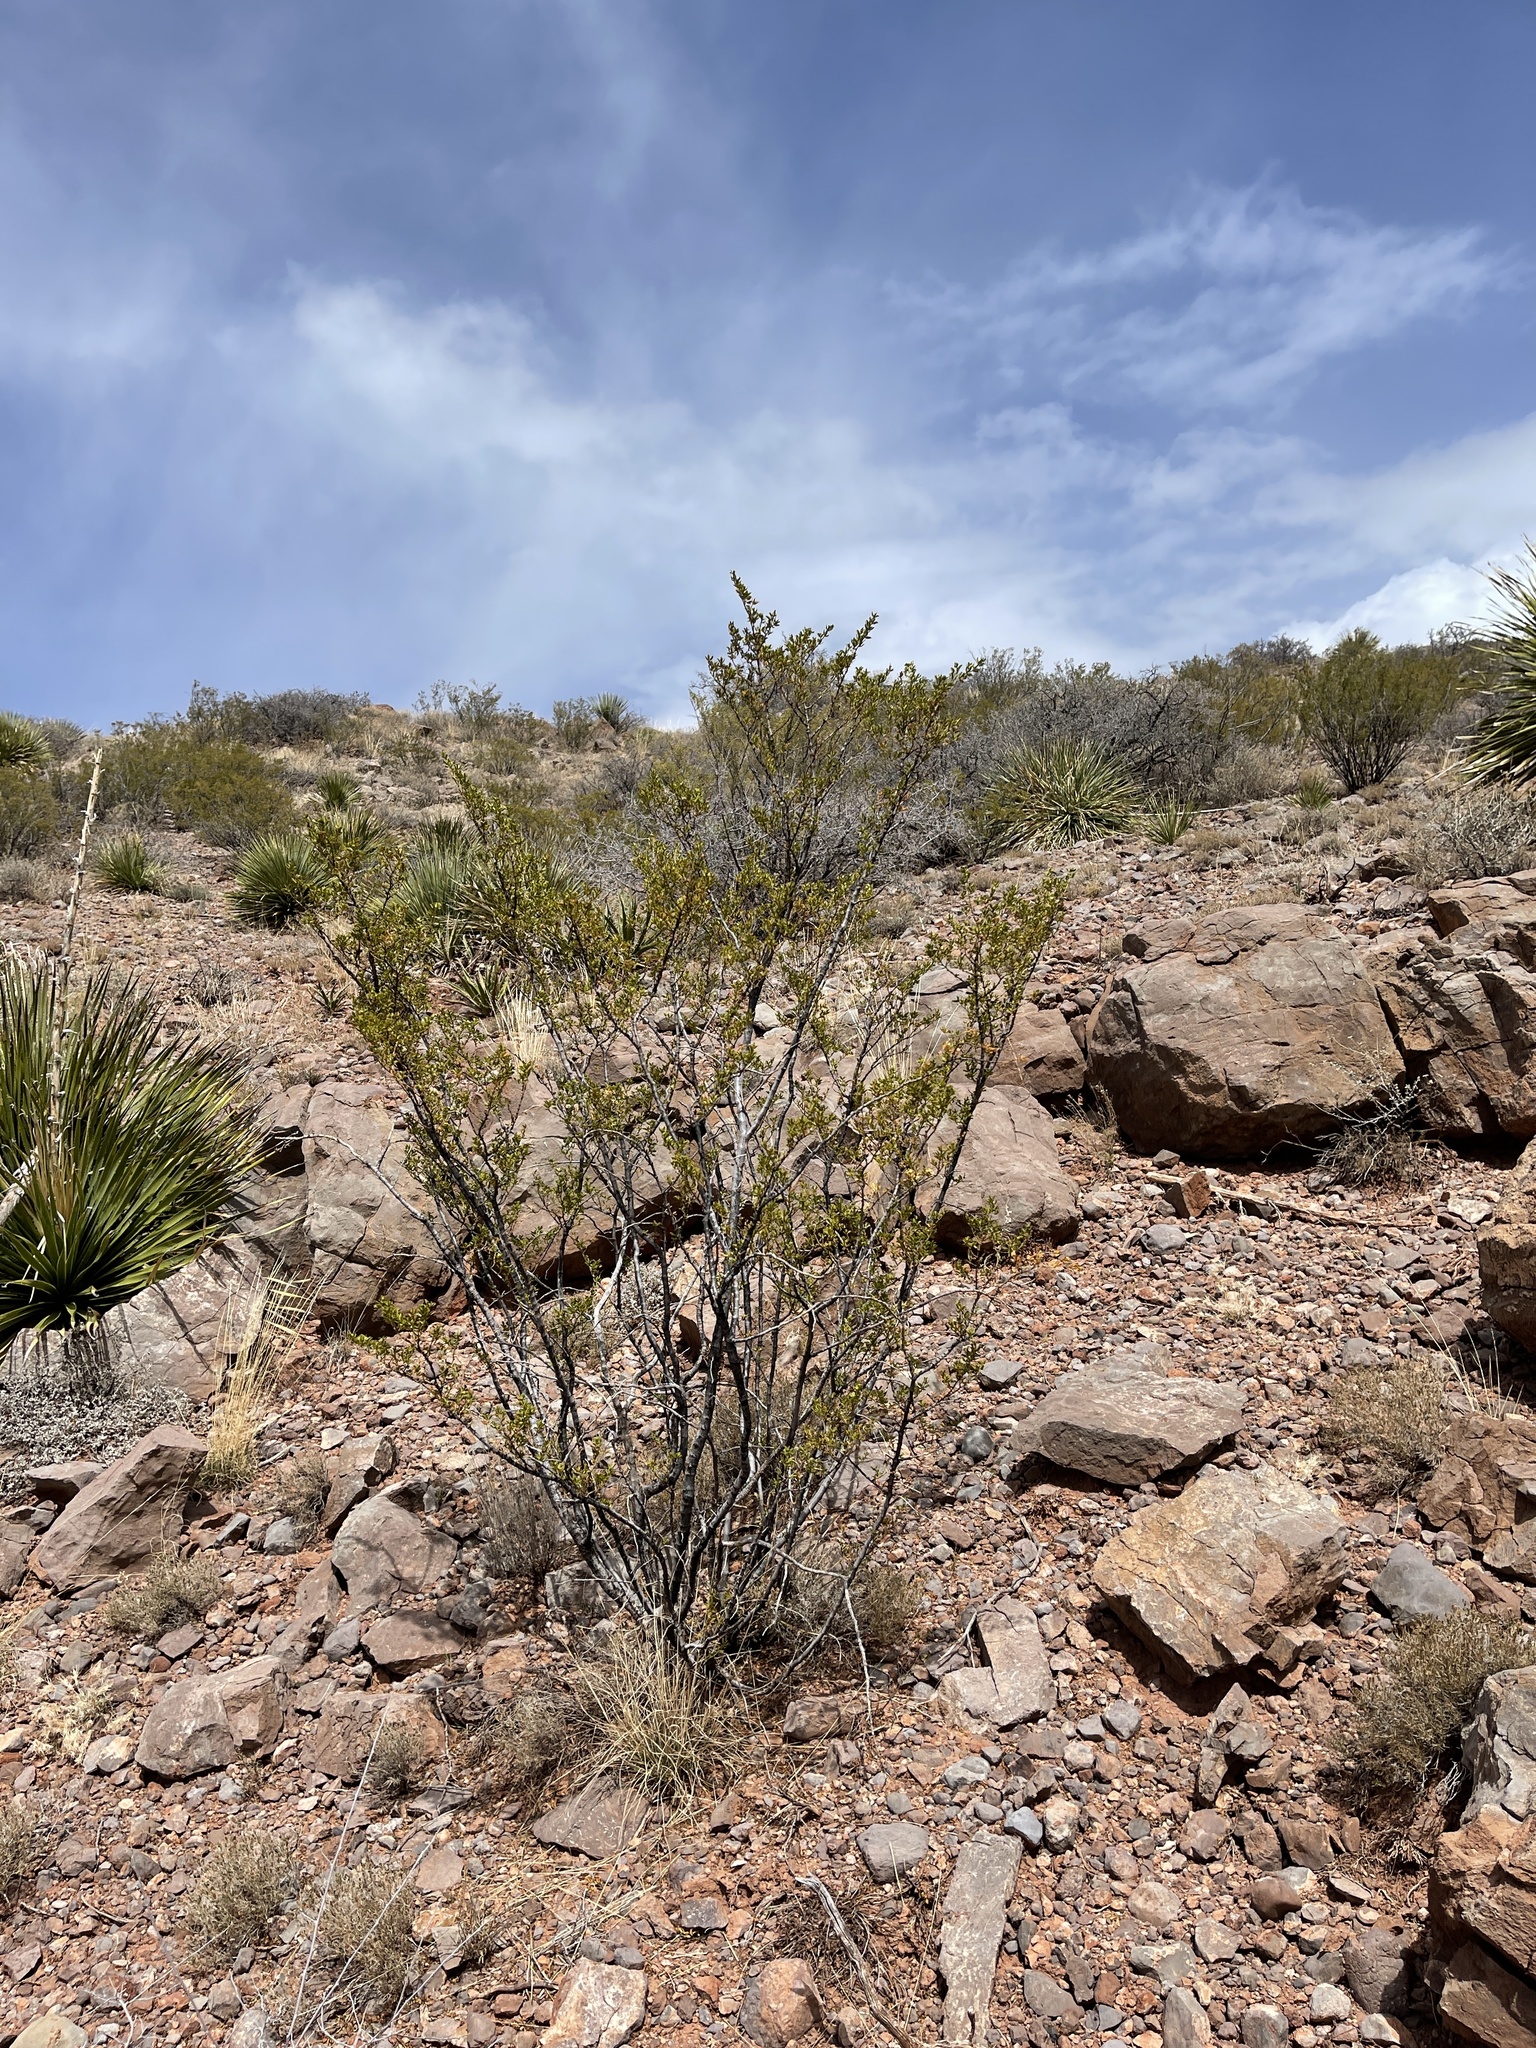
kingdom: Plantae
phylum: Tracheophyta
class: Magnoliopsida
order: Zygophyllales
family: Zygophyllaceae
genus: Larrea
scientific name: Larrea tridentata
